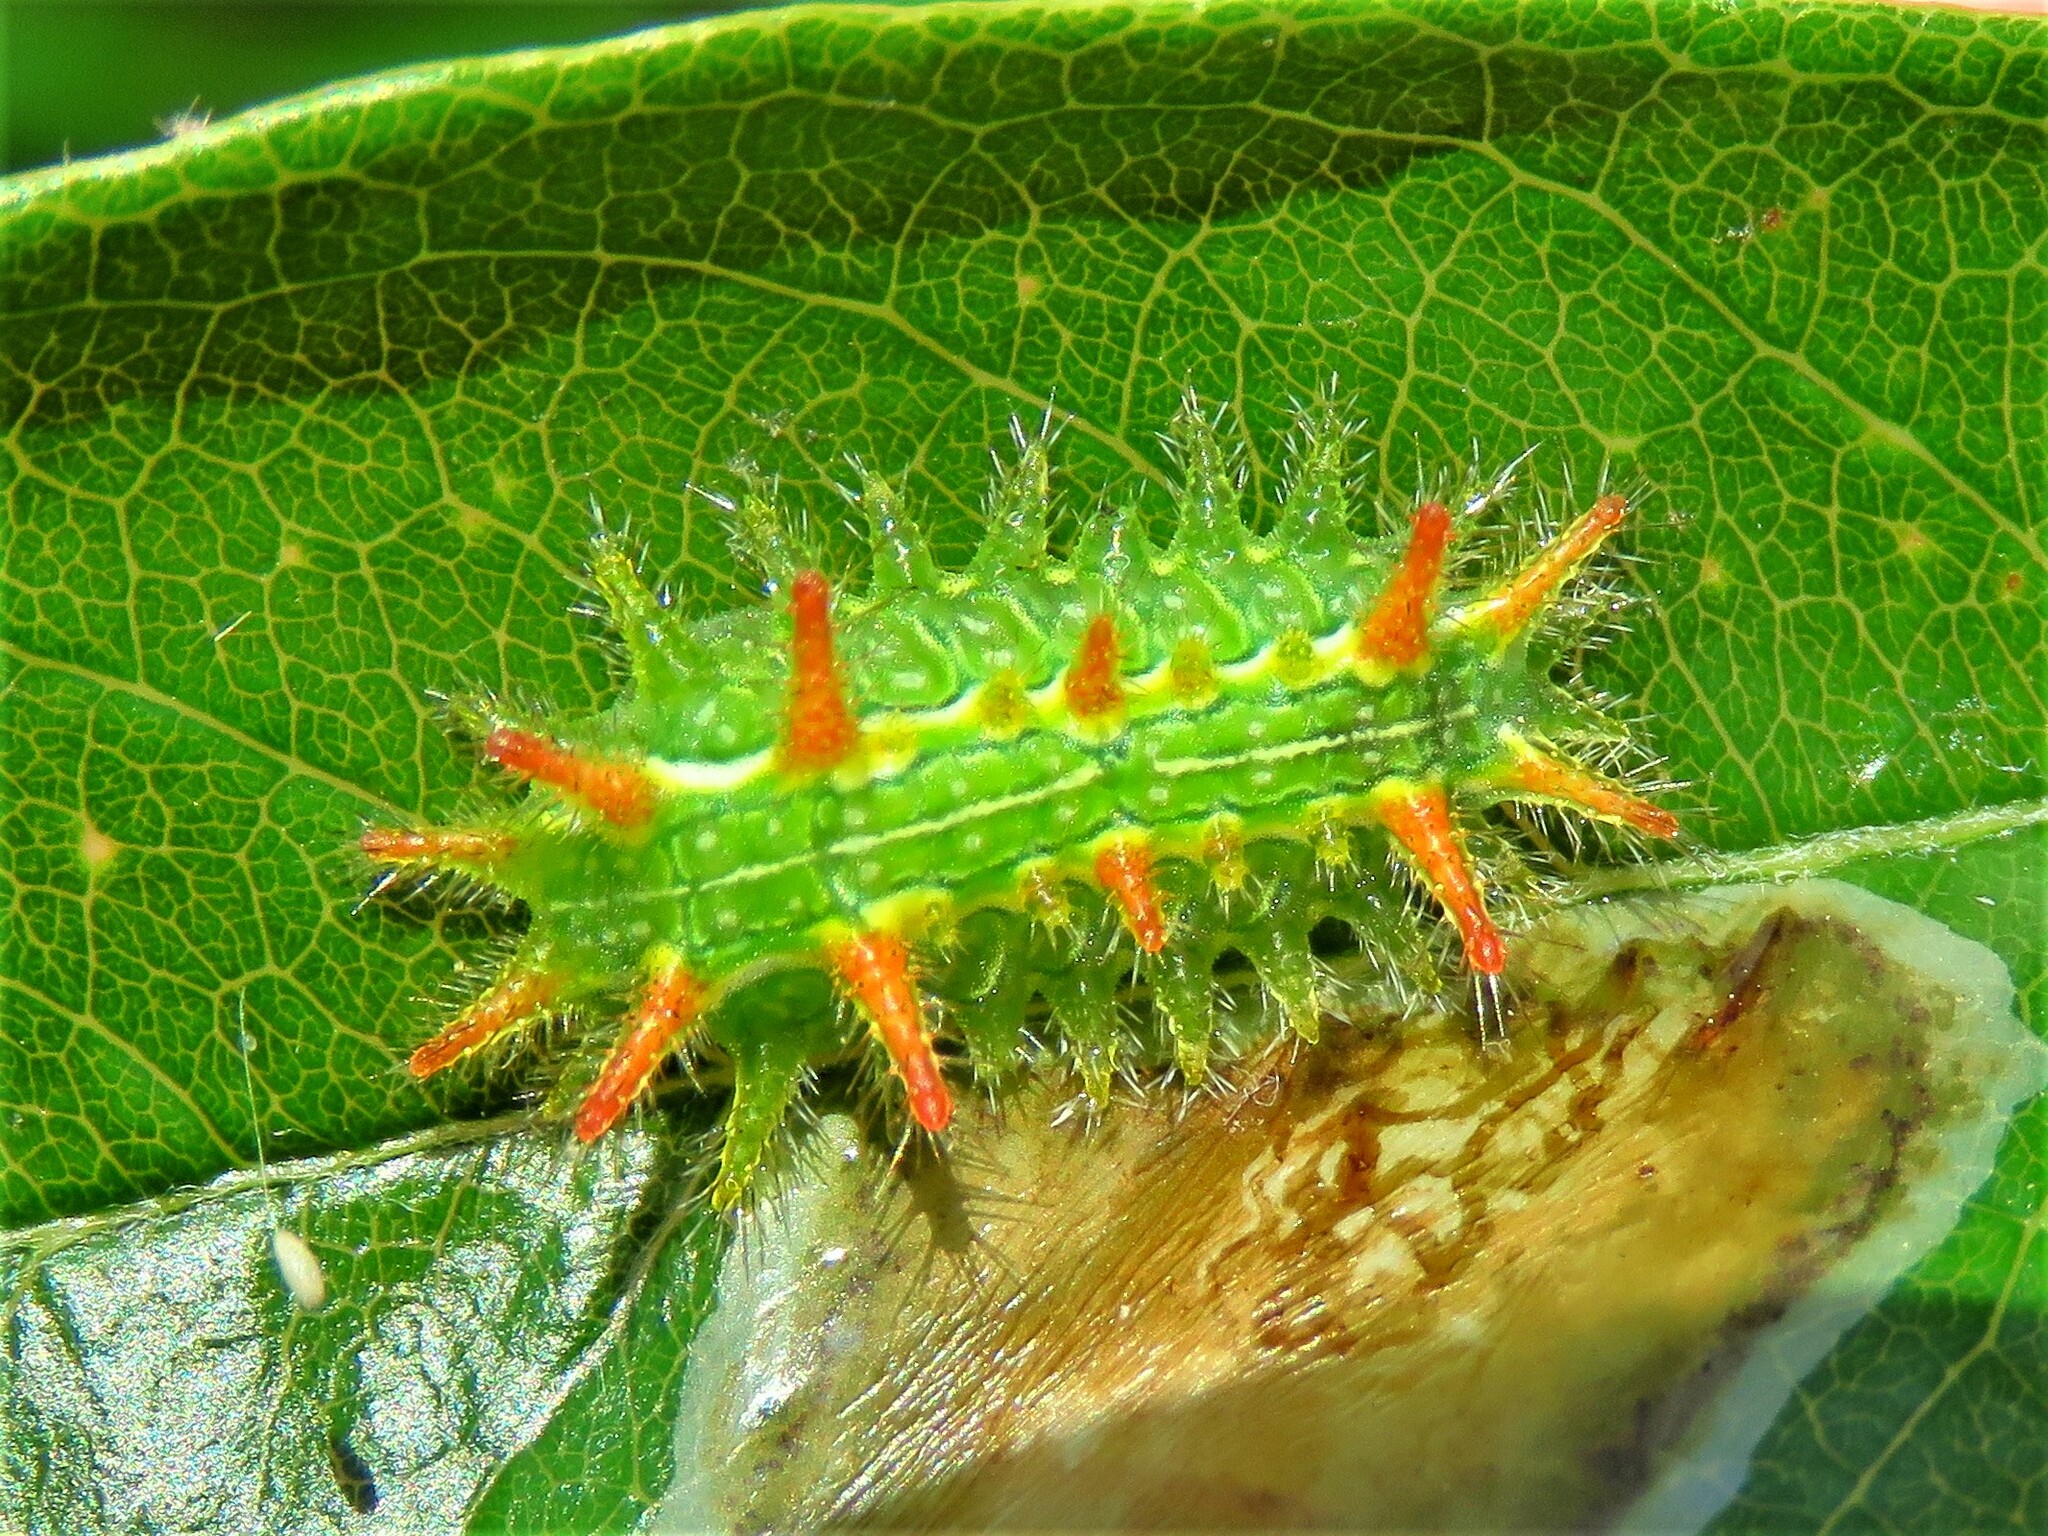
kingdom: Animalia
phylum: Arthropoda
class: Insecta
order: Lepidoptera
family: Limacodidae
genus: Euclea
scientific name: Euclea incisa
